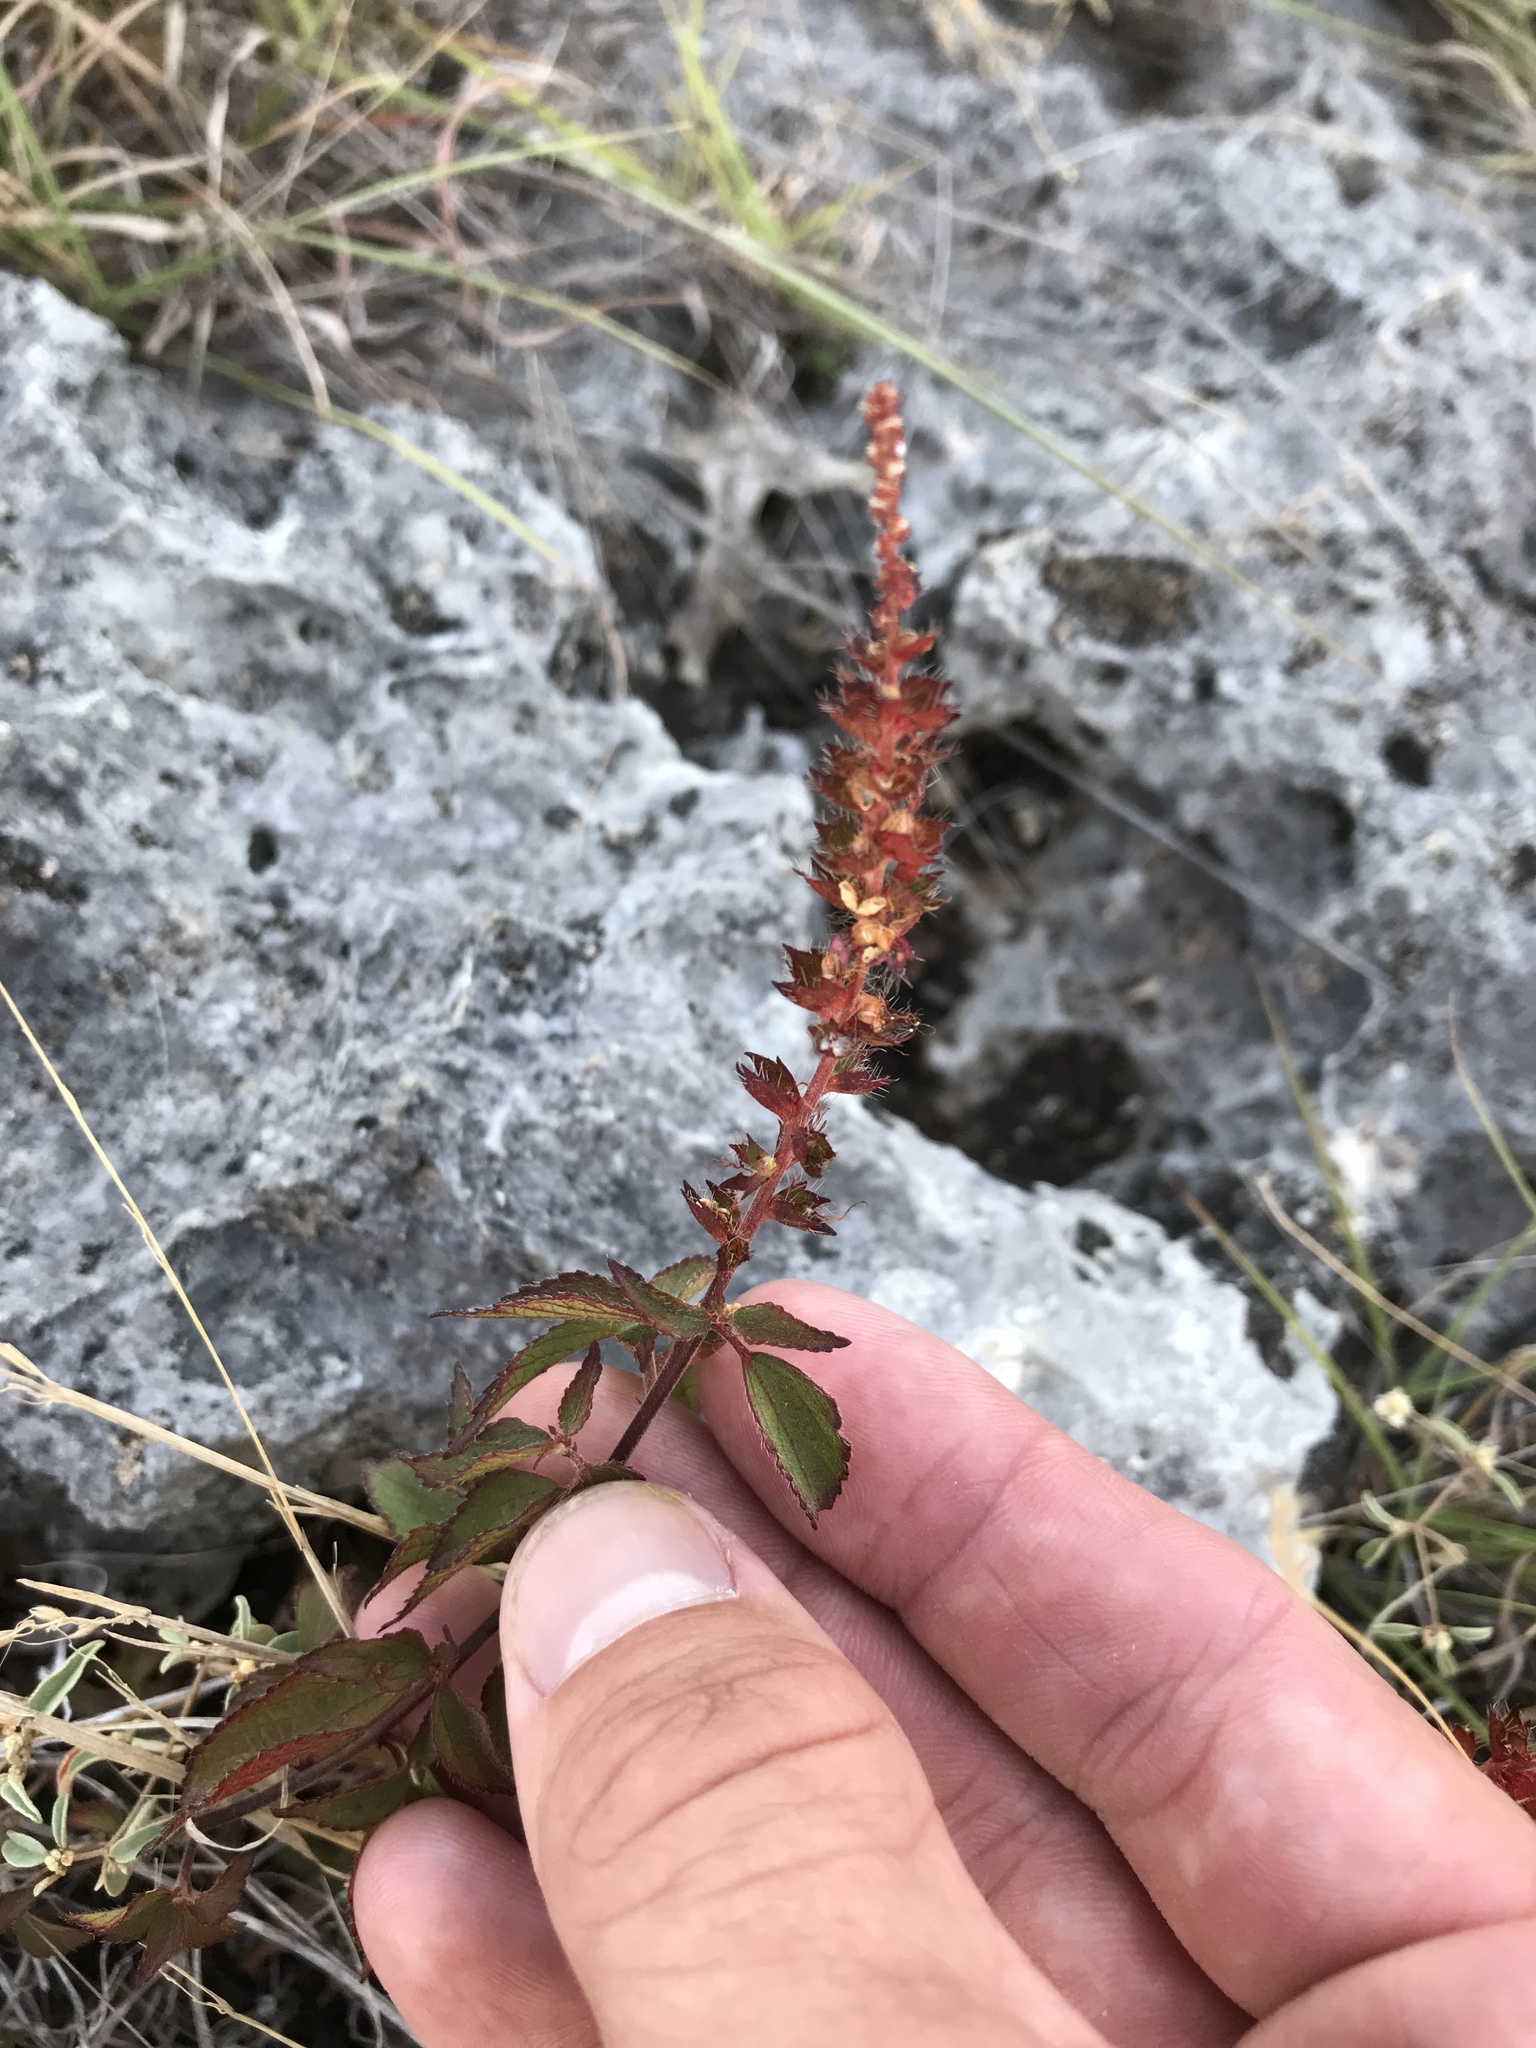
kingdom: Plantae
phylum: Tracheophyta
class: Magnoliopsida
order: Malpighiales
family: Euphorbiaceae
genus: Acalypha
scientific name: Acalypha phleoides
